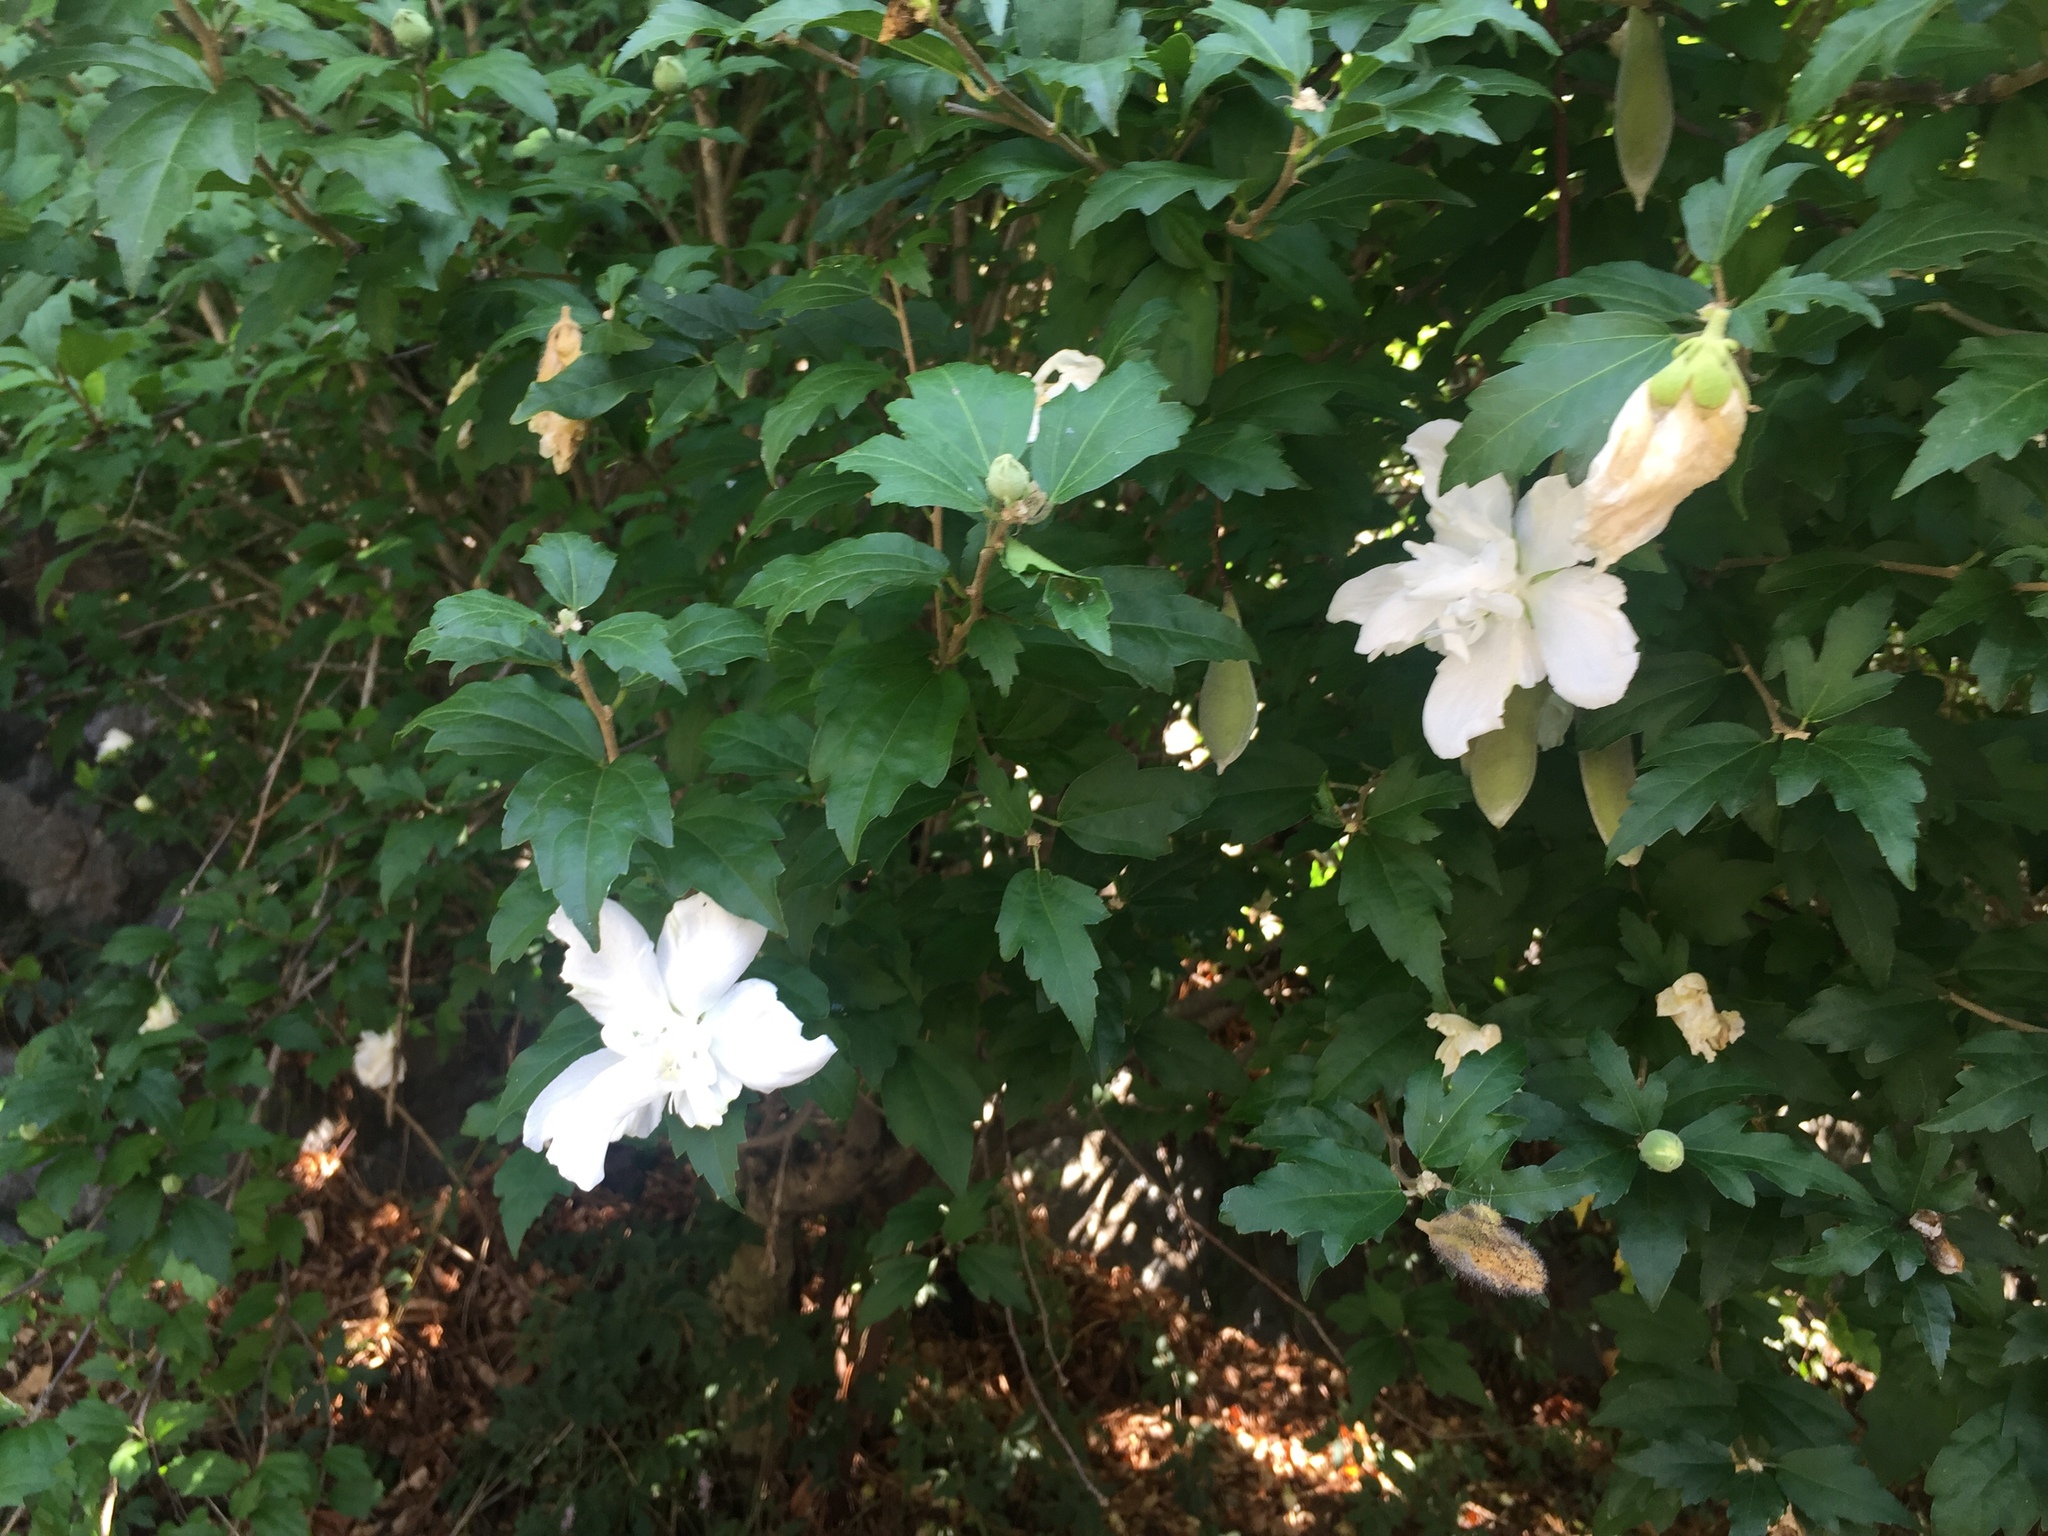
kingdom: Plantae
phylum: Tracheophyta
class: Magnoliopsida
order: Malvales
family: Malvaceae
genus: Hibiscus
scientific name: Hibiscus syriacus
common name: Syrian ketmia
